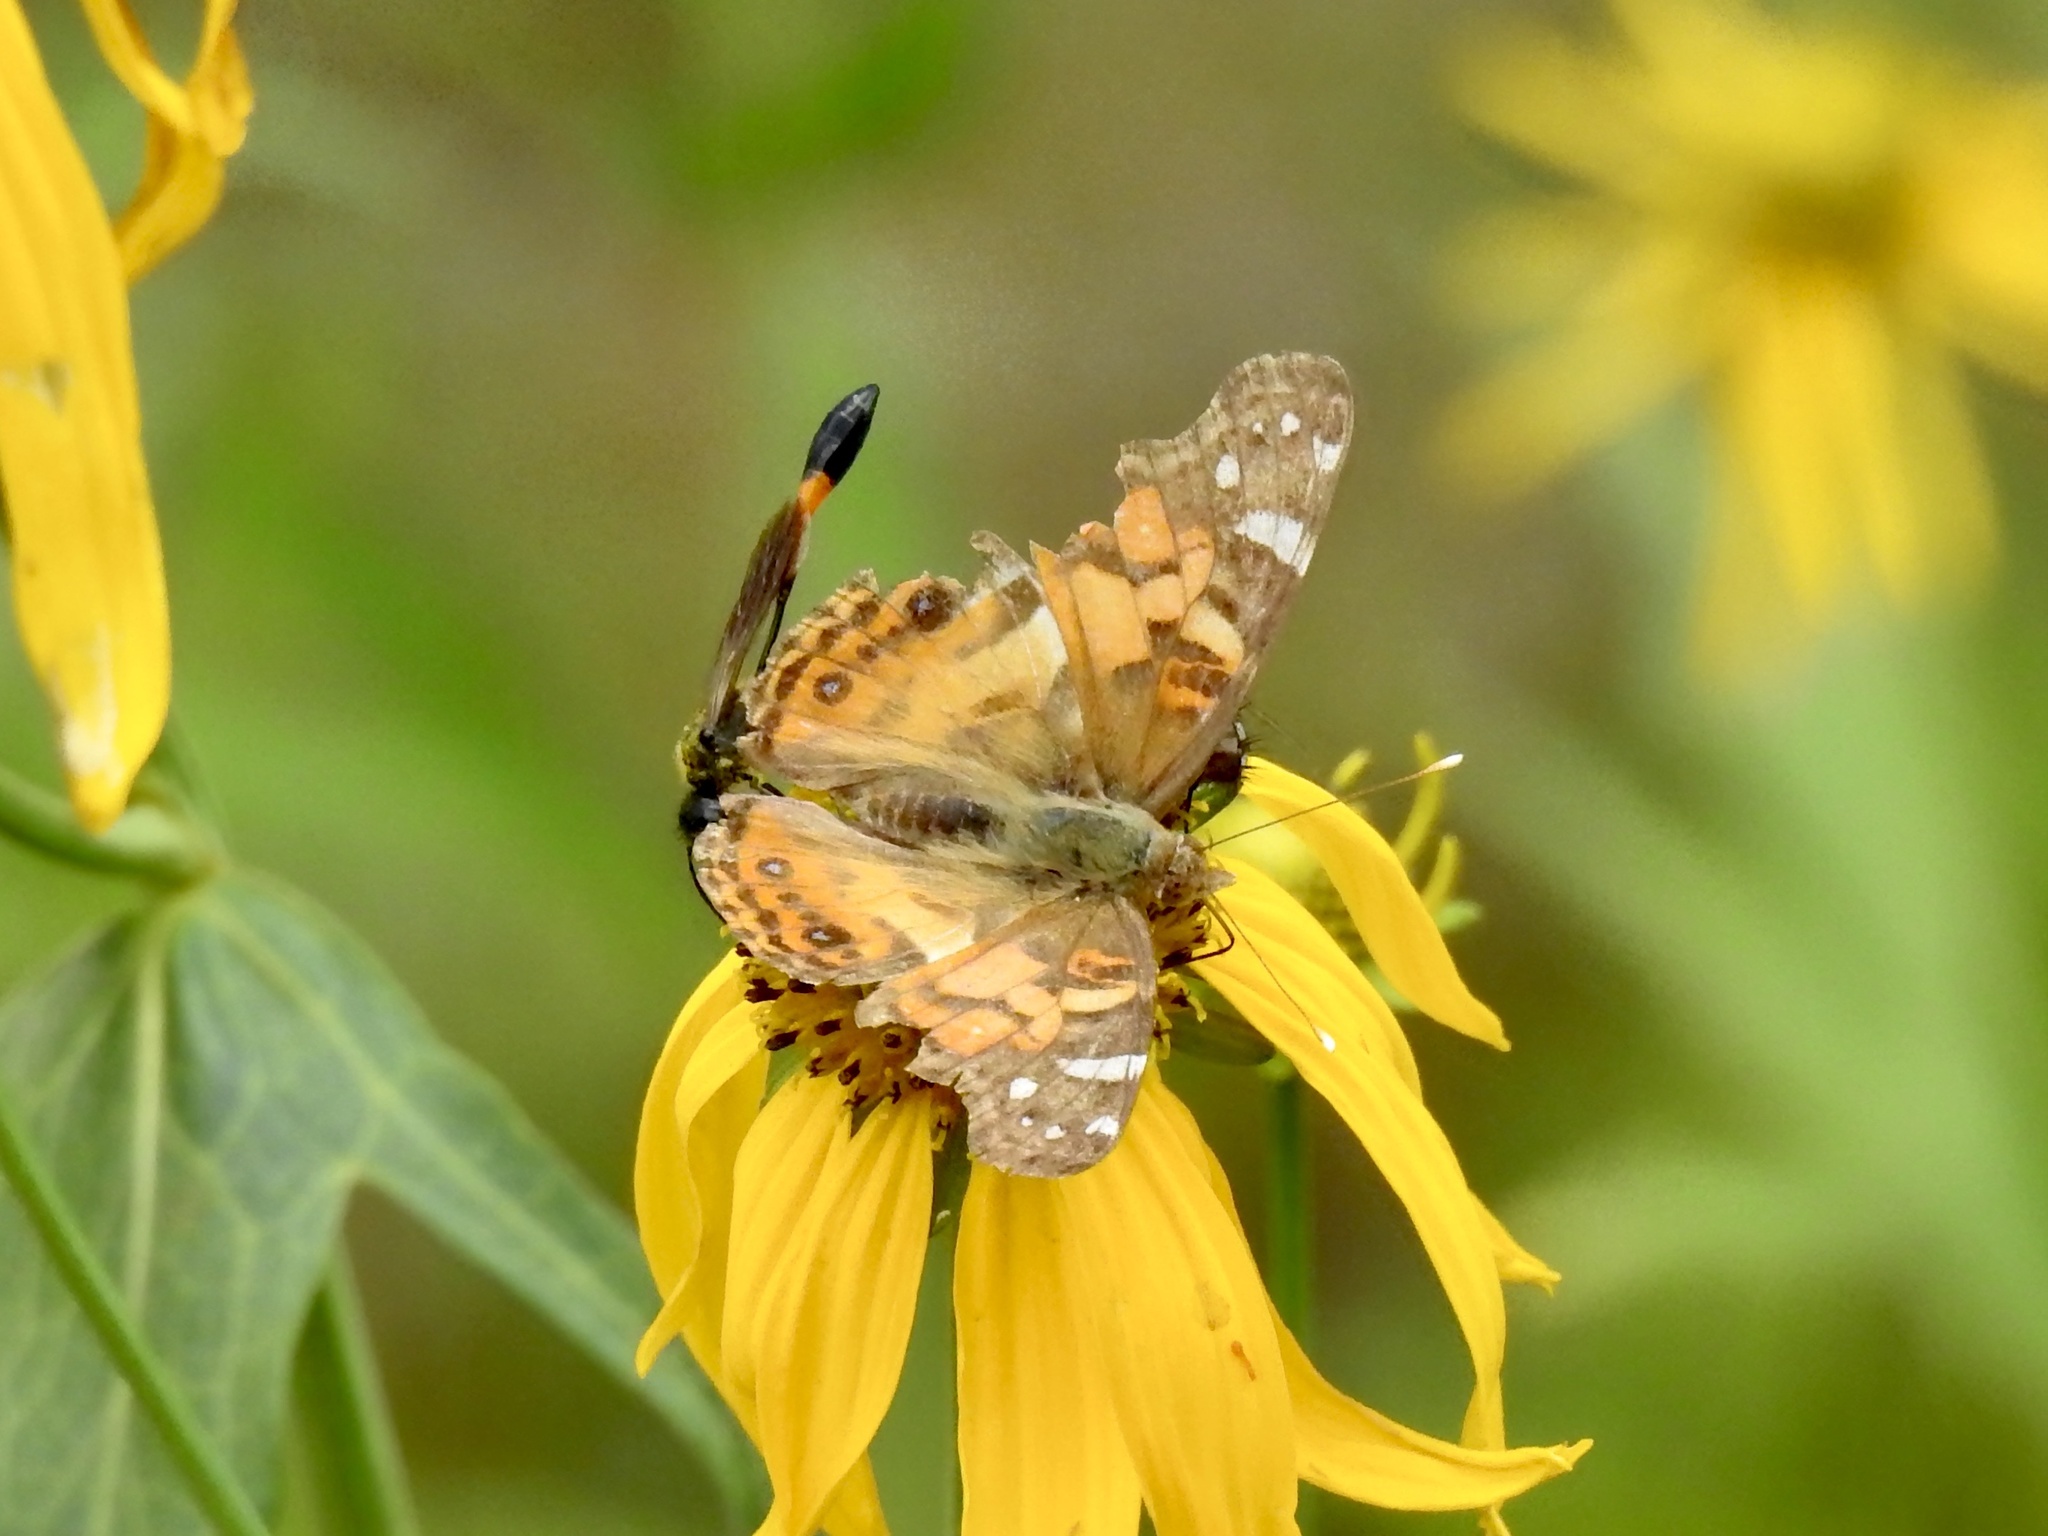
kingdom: Animalia
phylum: Arthropoda
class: Insecta
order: Lepidoptera
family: Nymphalidae
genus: Vanessa
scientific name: Vanessa virginiensis
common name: American lady
